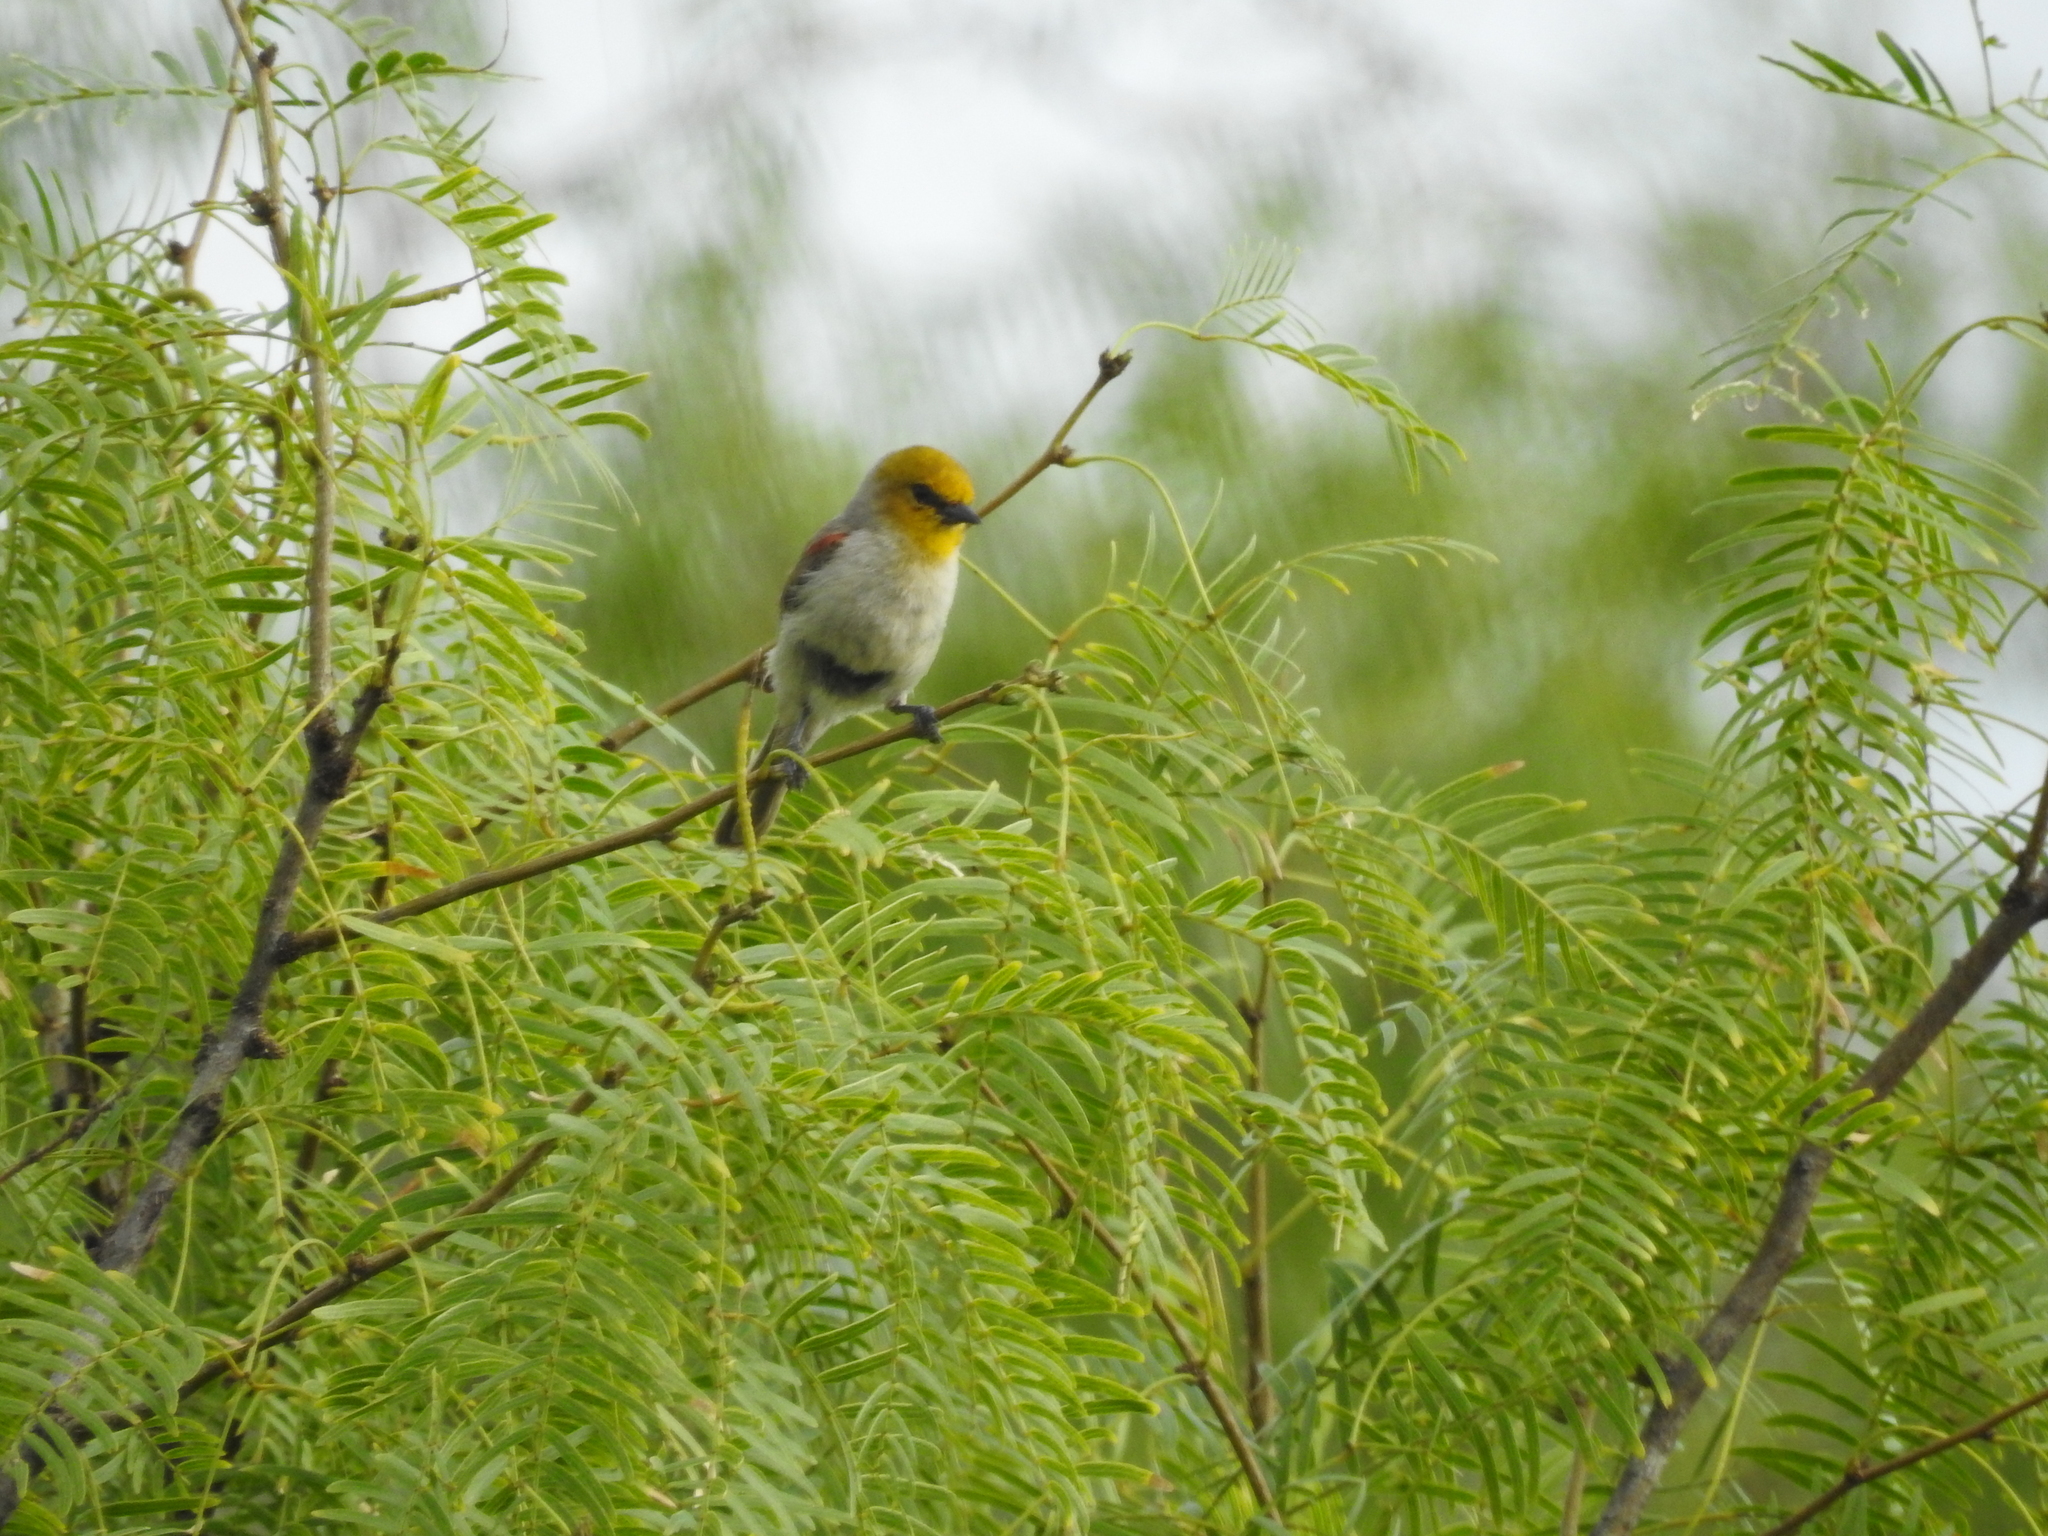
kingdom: Animalia
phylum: Chordata
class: Aves
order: Passeriformes
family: Remizidae
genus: Auriparus
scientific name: Auriparus flaviceps
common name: Verdin
